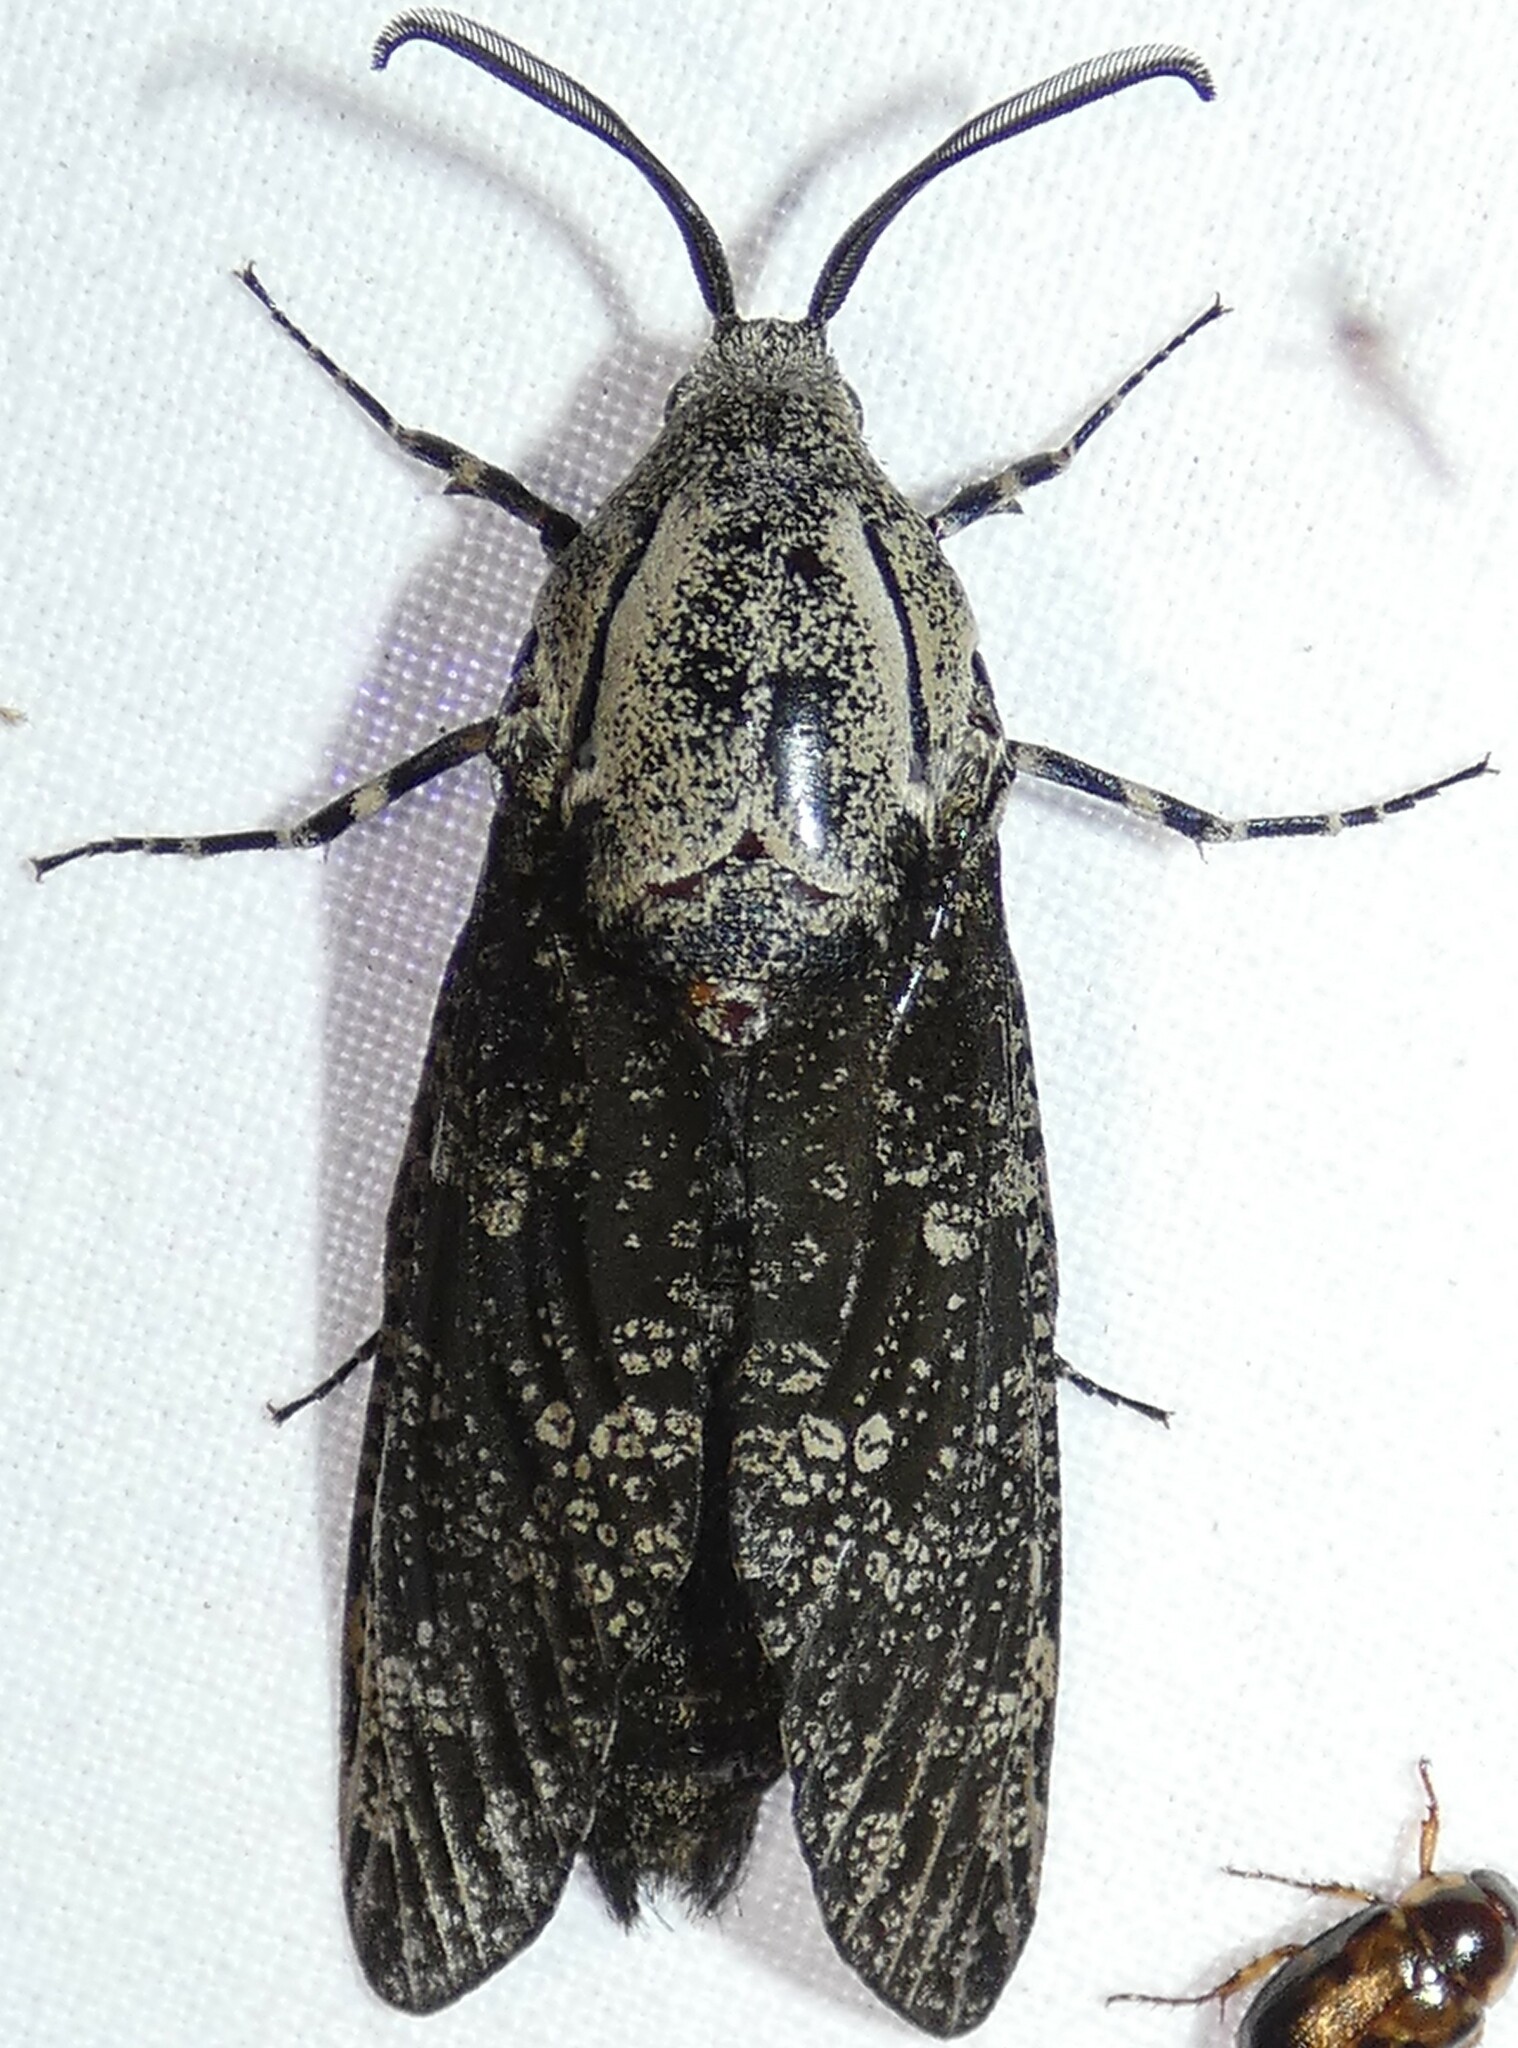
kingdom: Animalia
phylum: Arthropoda
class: Insecta
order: Lepidoptera
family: Cossidae
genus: Prionoxystus
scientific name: Prionoxystus robiniae
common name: Carpenterworm
